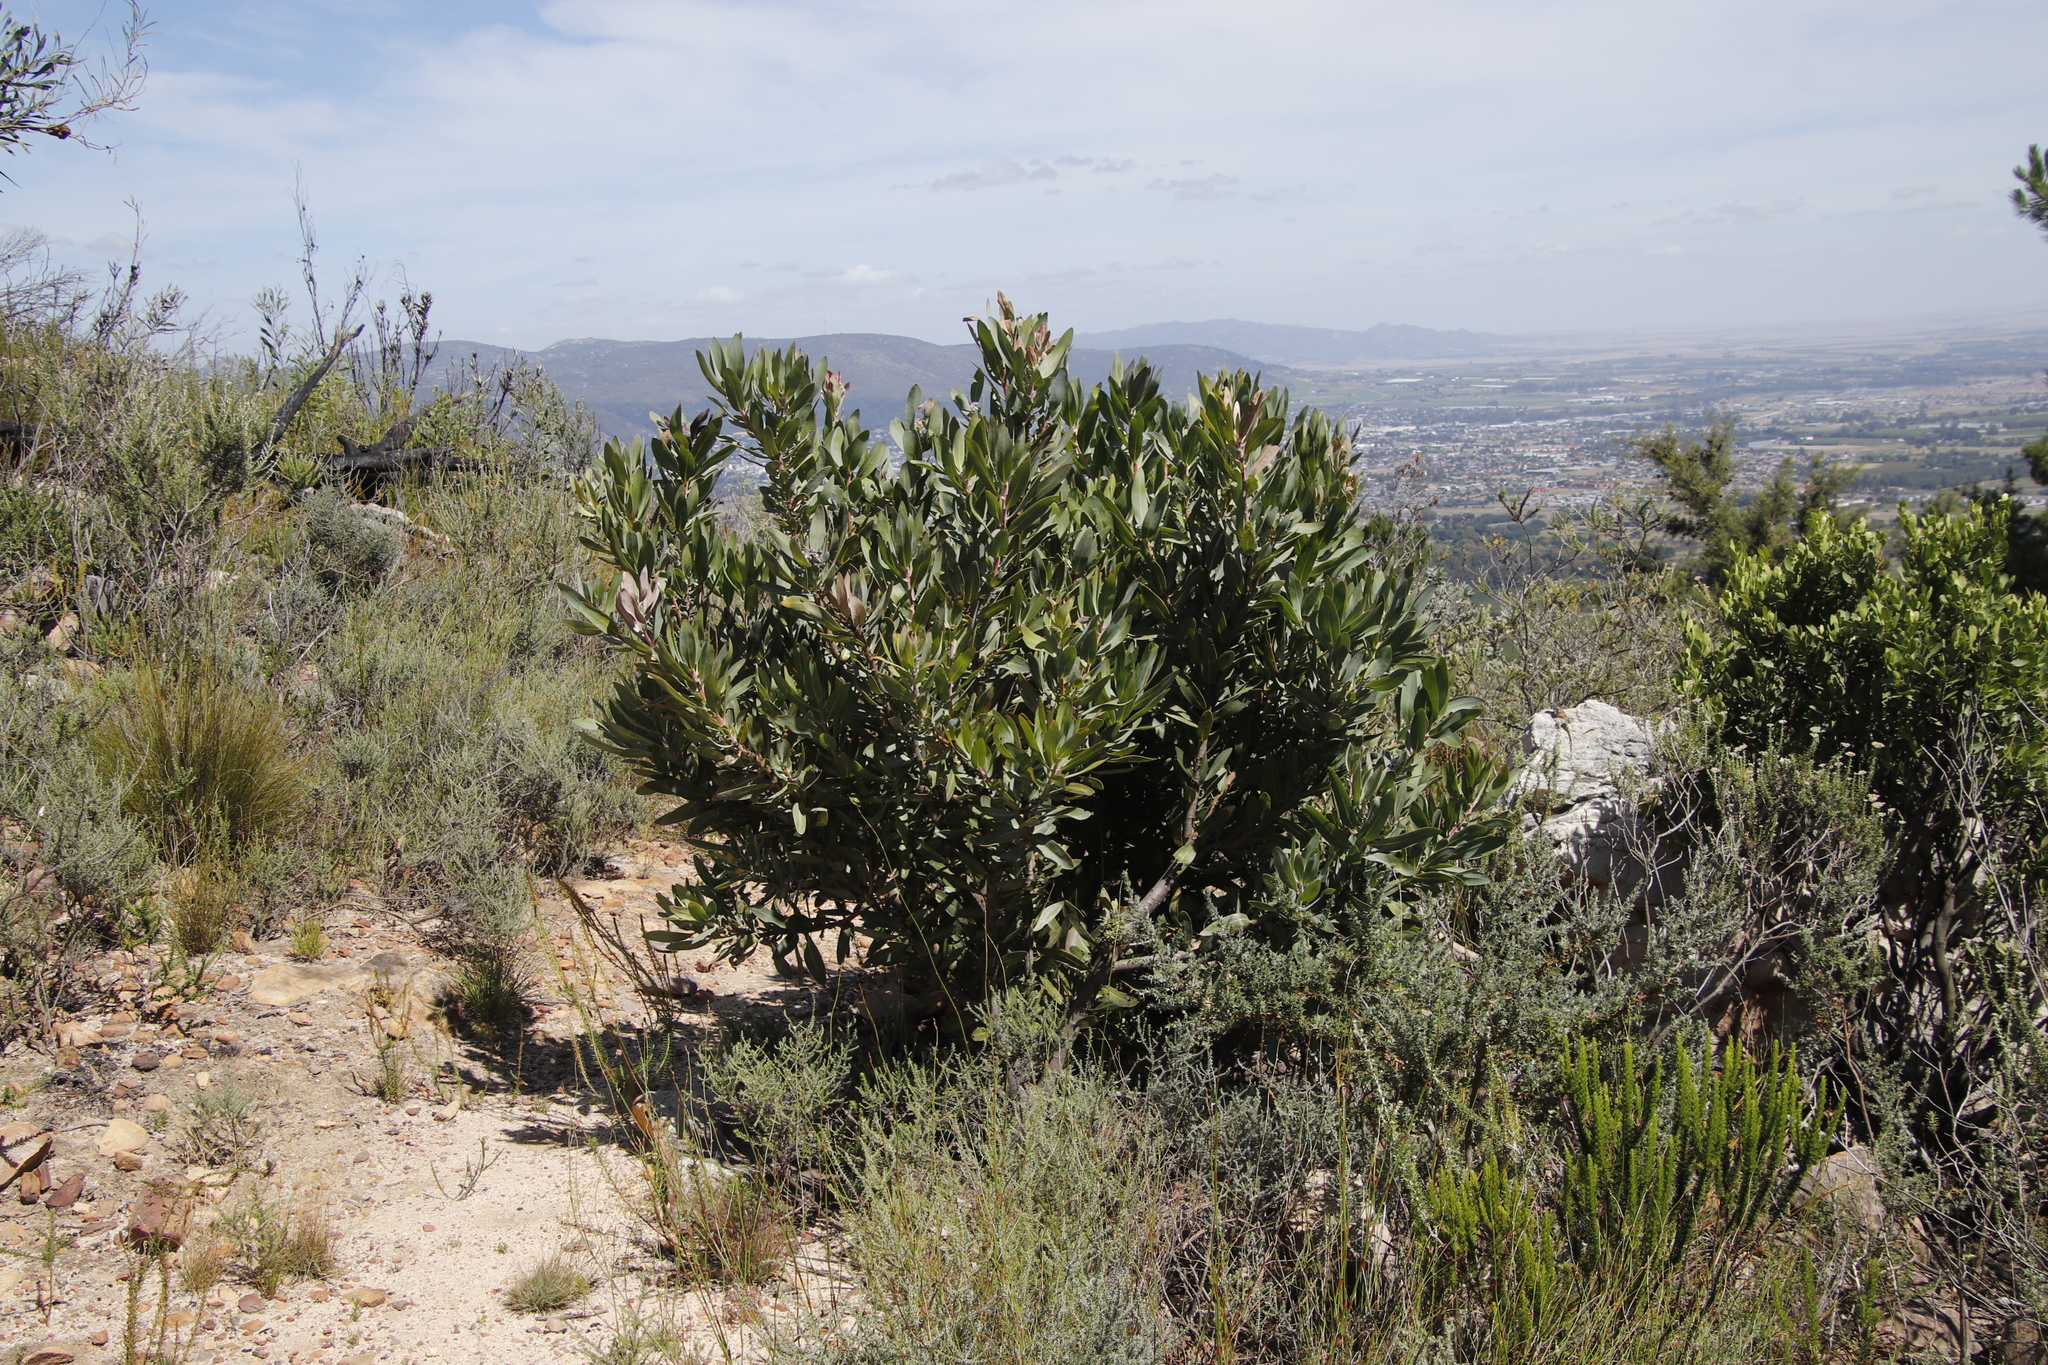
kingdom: Plantae
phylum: Tracheophyta
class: Magnoliopsida
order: Proteales
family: Proteaceae
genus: Protea
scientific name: Protea laurifolia
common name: Grey-leaf sugarbsh
